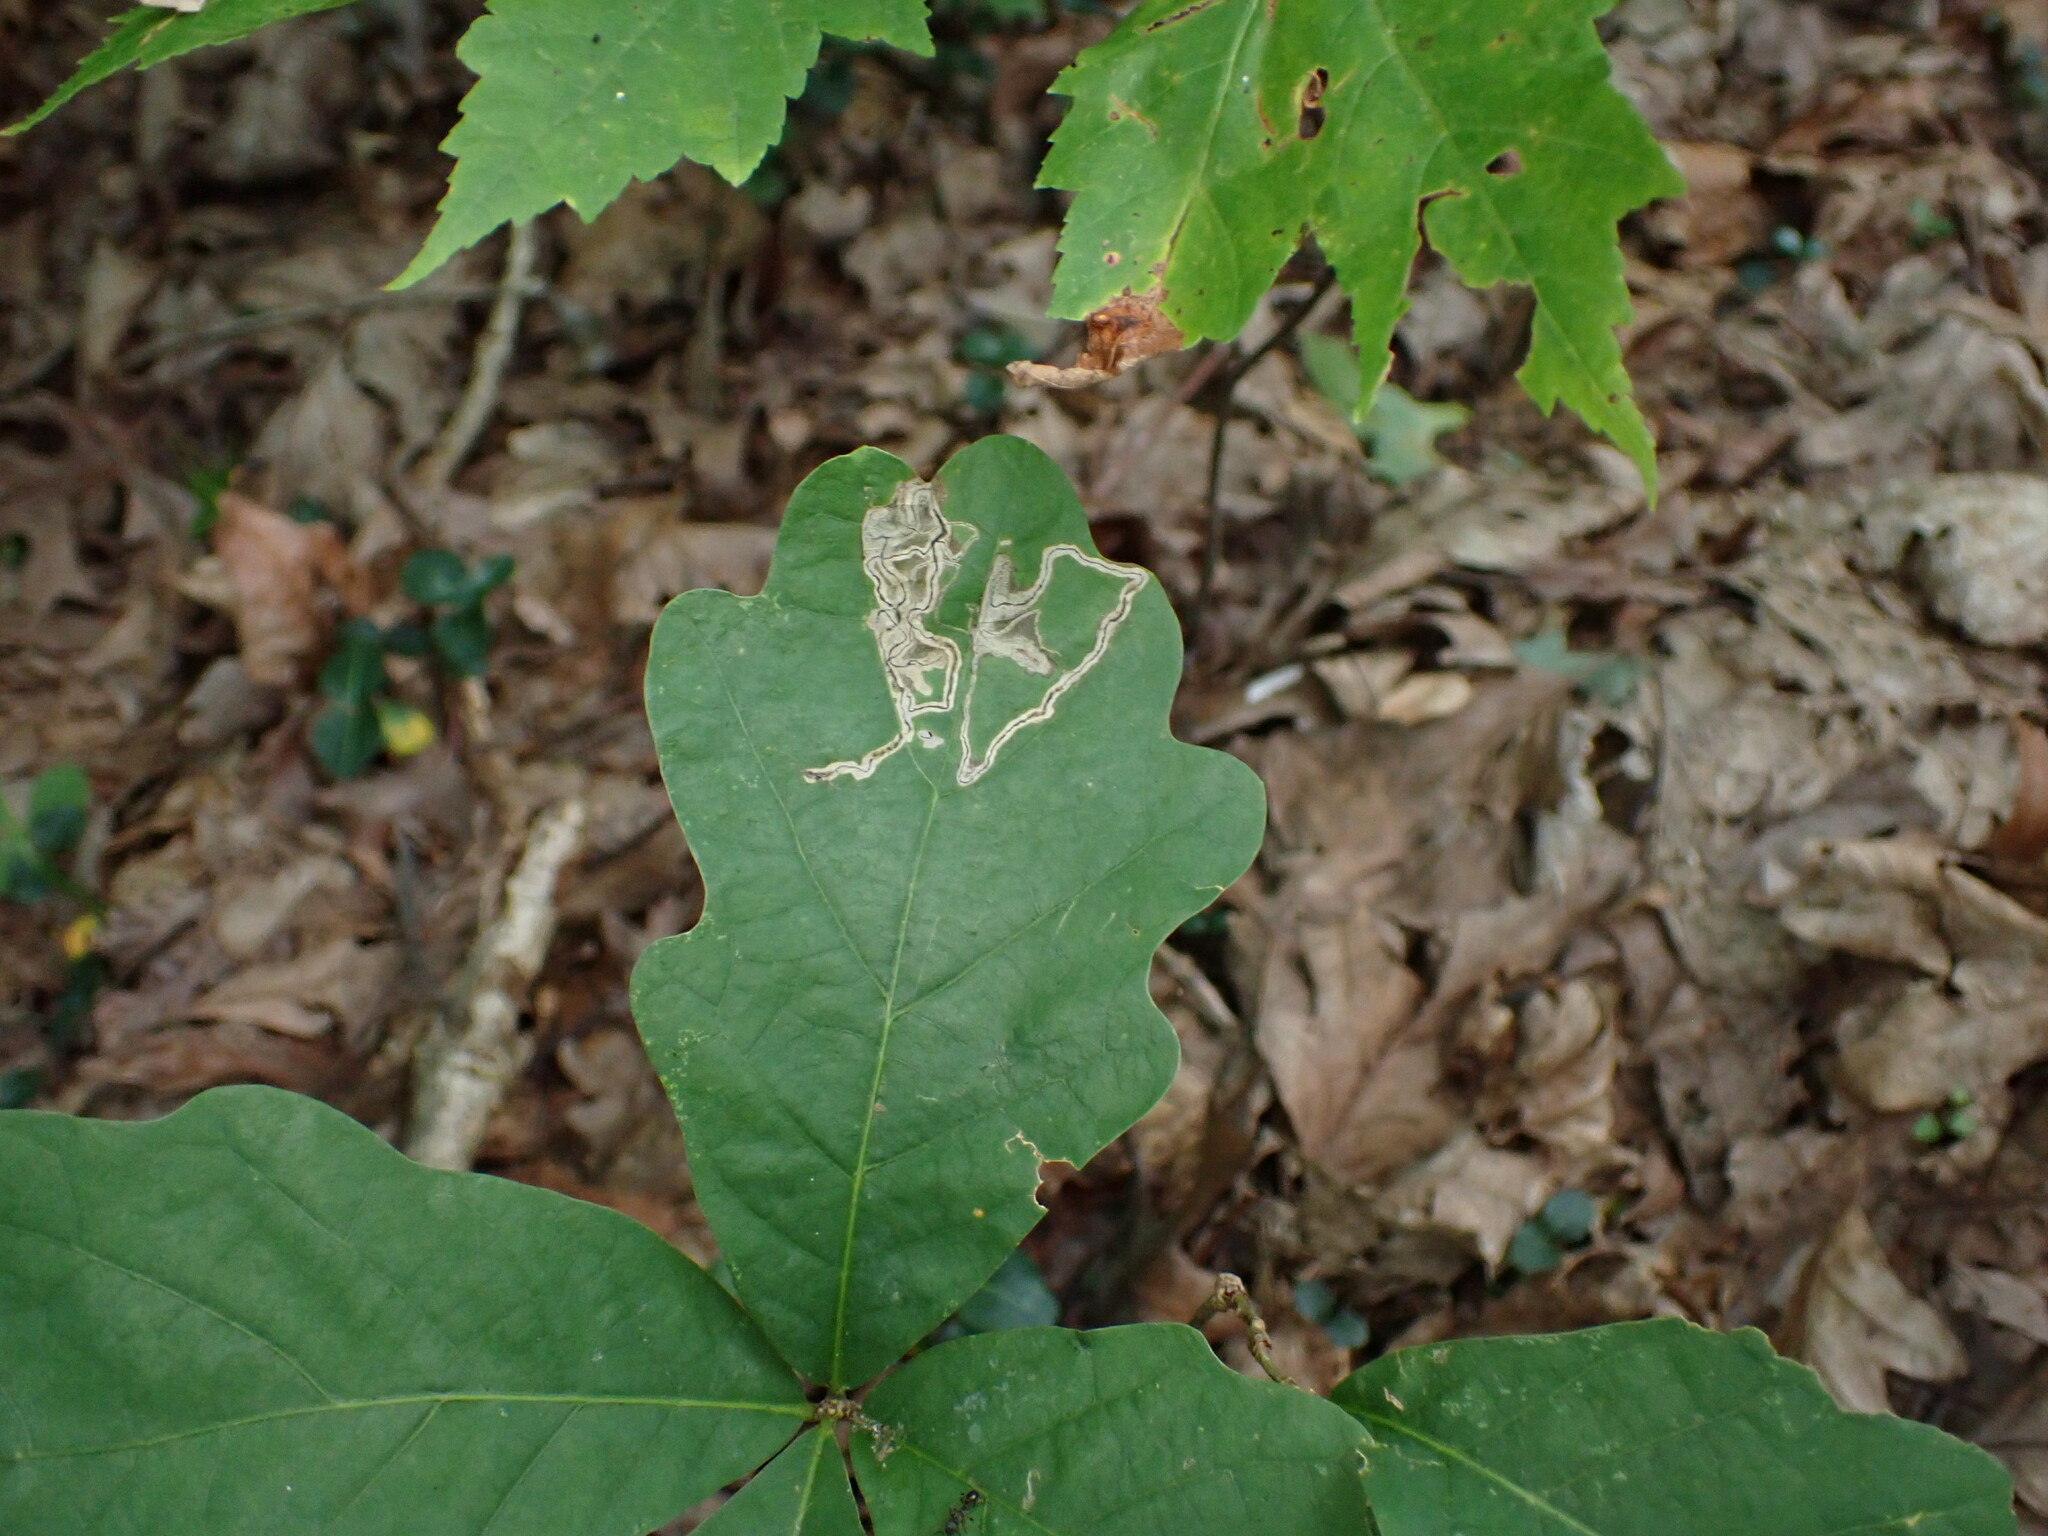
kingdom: Animalia
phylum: Arthropoda
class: Insecta
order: Lepidoptera
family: Nepticulidae
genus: Stigmella
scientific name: Stigmella
